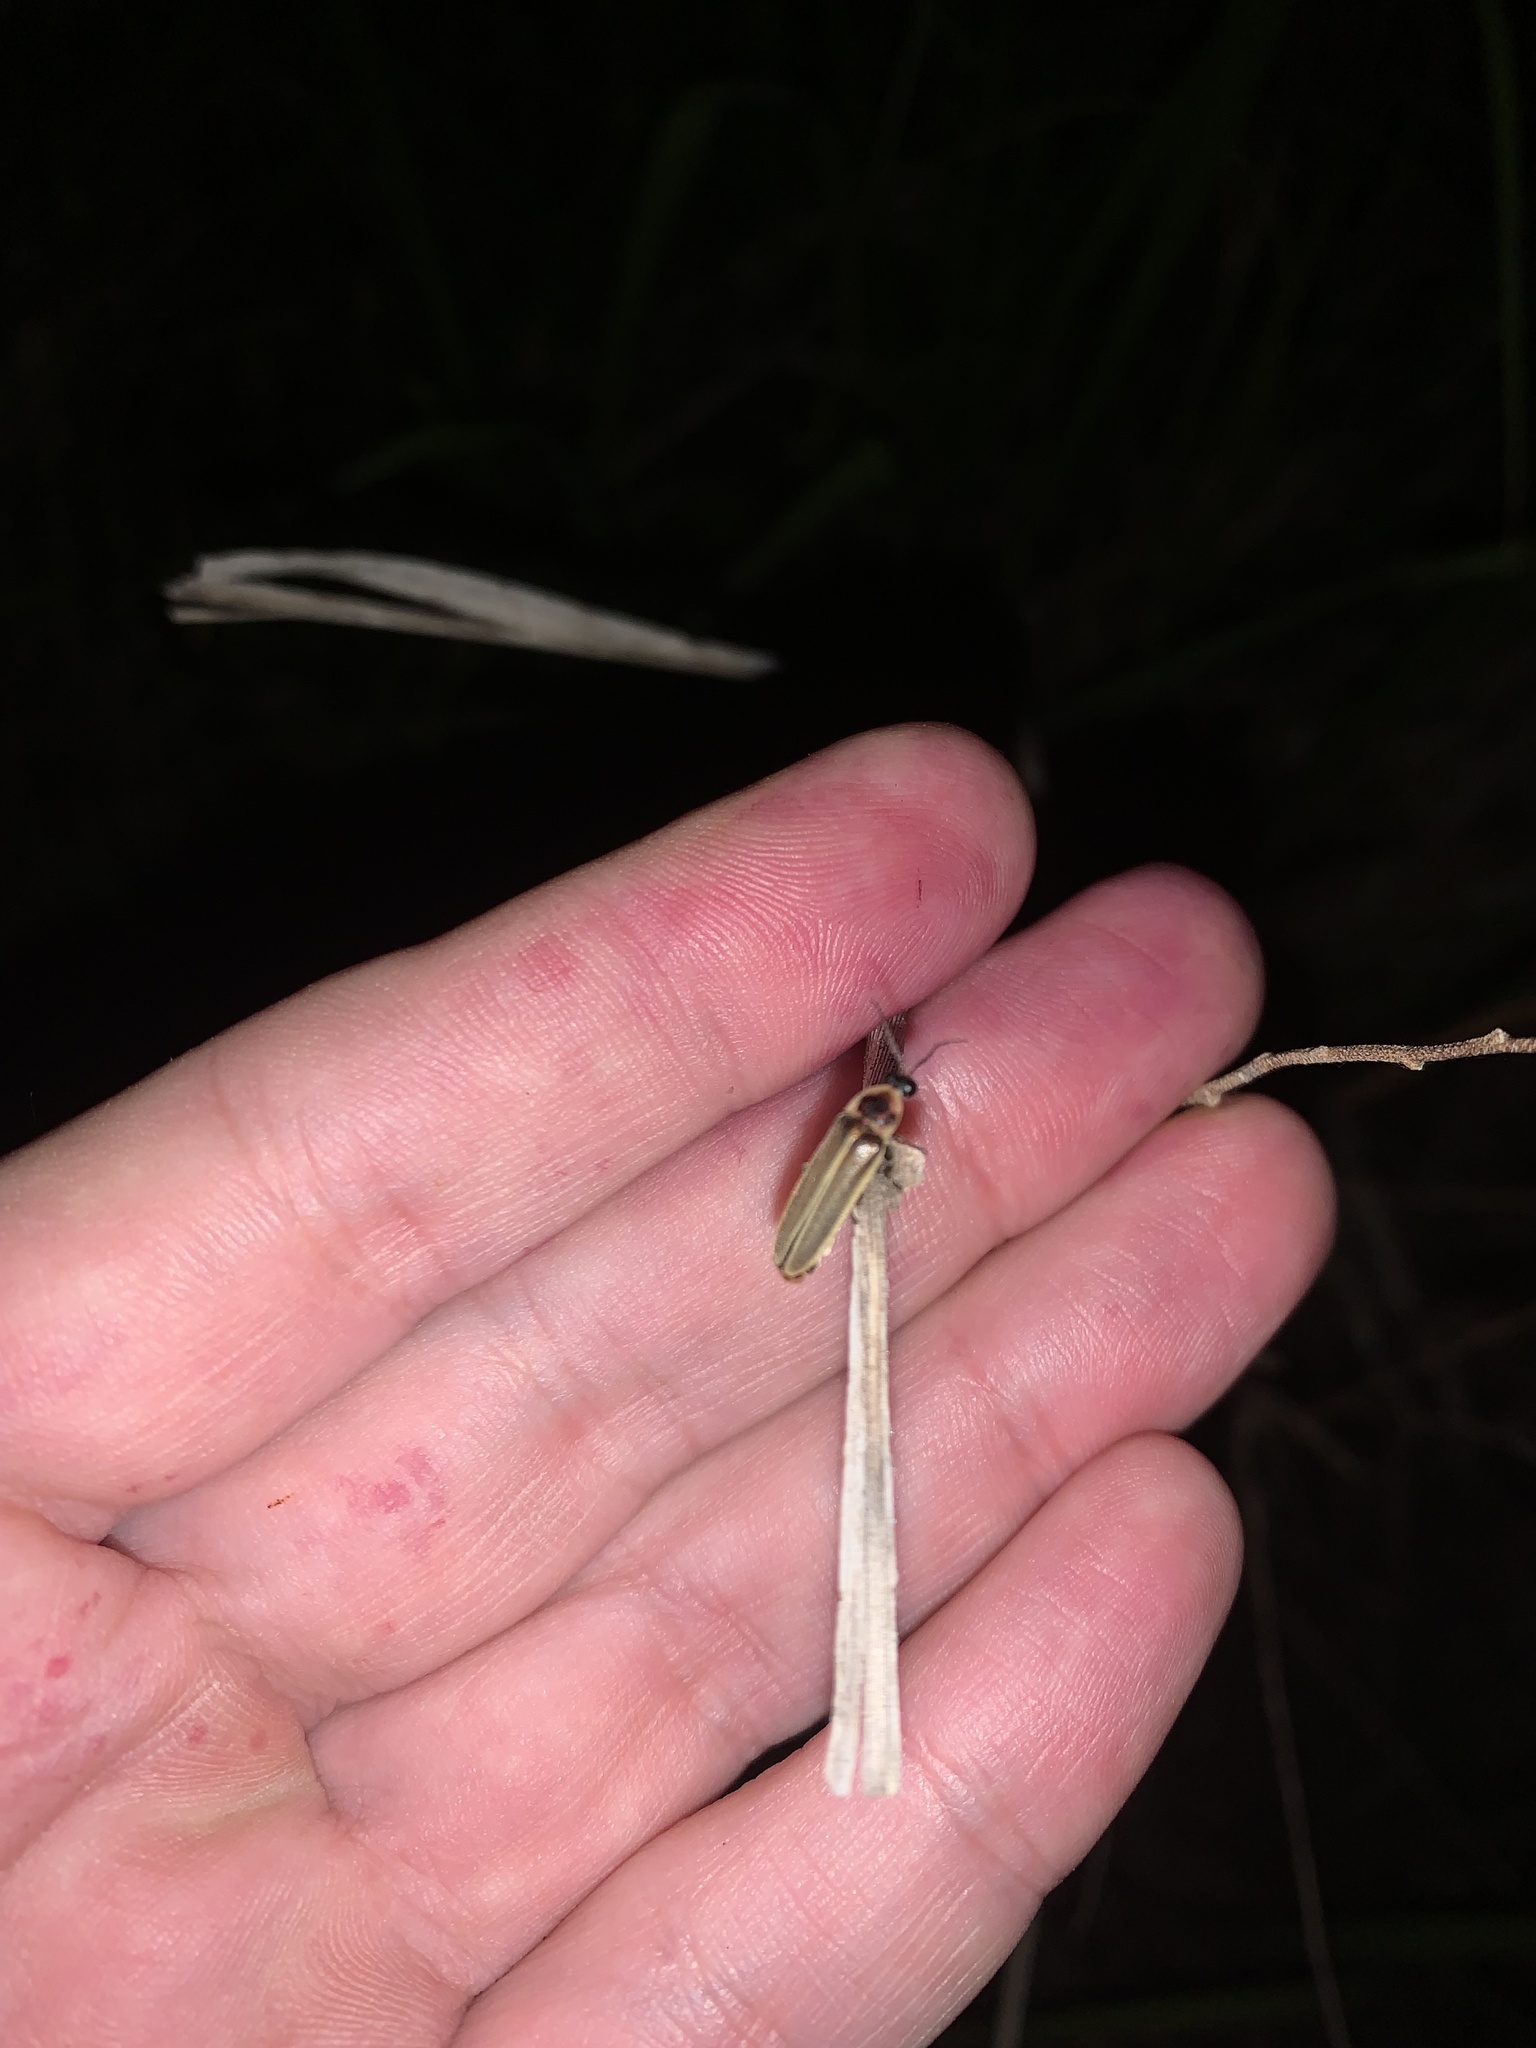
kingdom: Animalia
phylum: Arthropoda
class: Insecta
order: Coleoptera
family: Lampyridae
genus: Photinus
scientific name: Photinus signaticollis
